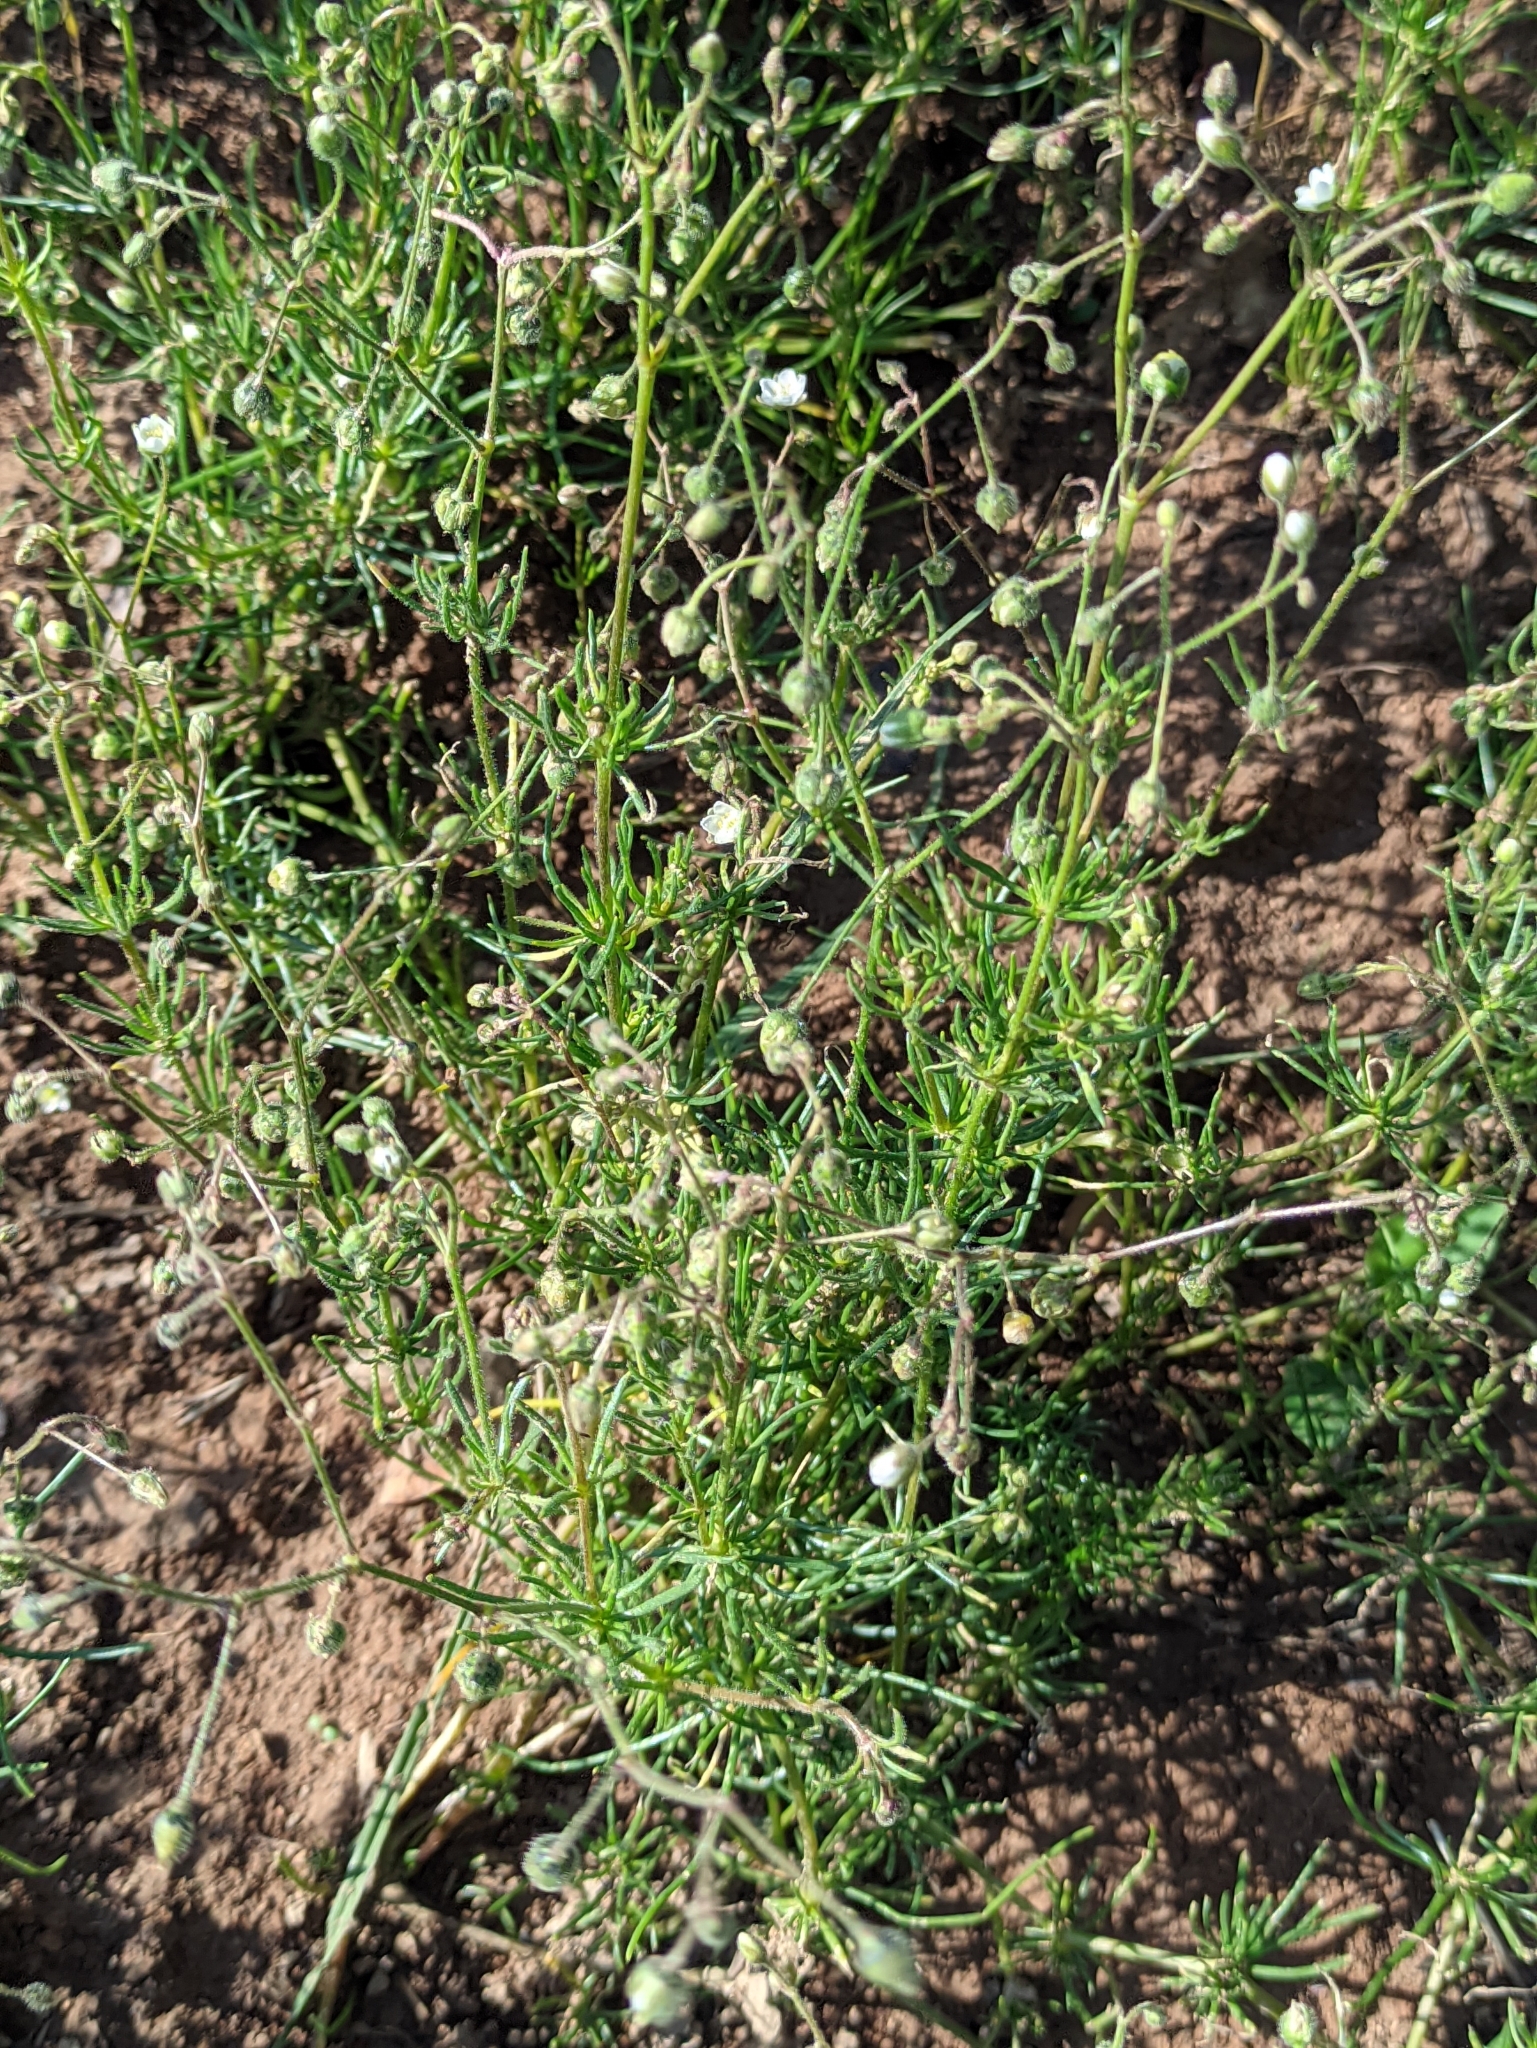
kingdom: Plantae
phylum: Tracheophyta
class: Magnoliopsida
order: Caryophyllales
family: Caryophyllaceae
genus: Spergula
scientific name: Spergula arvensis
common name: Corn spurrey
